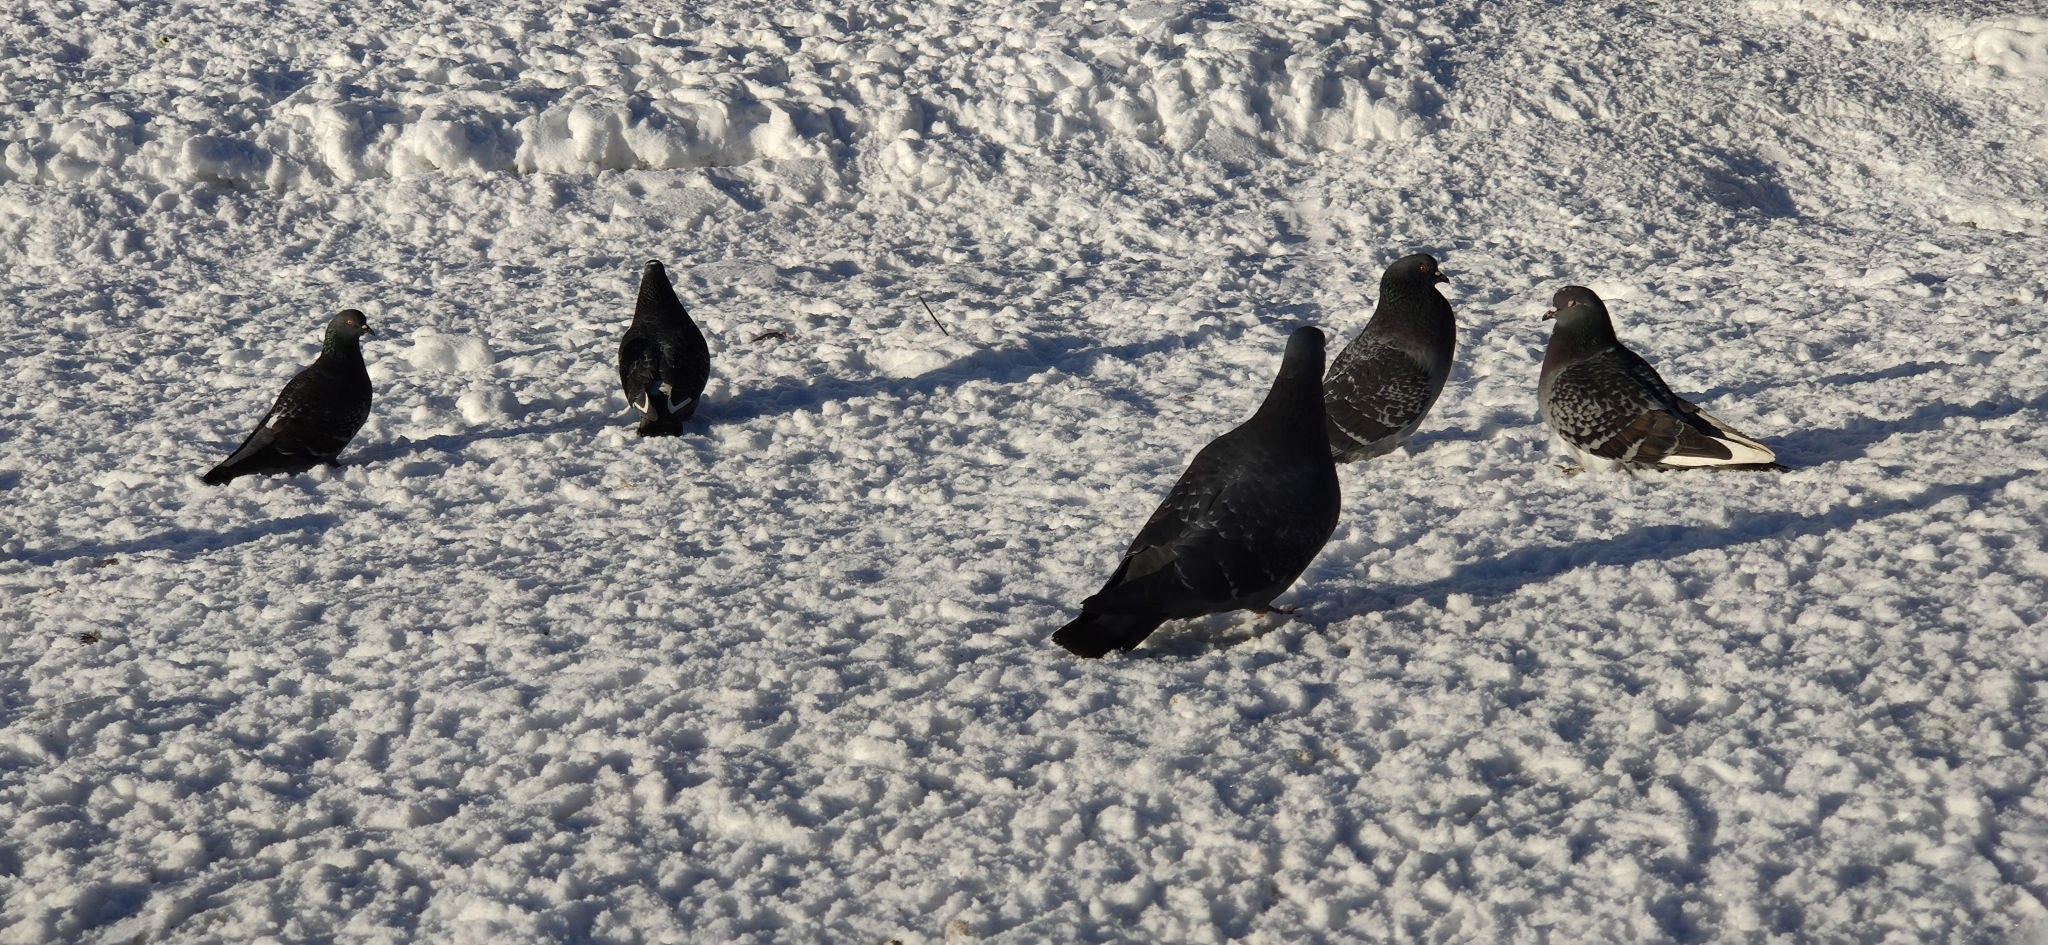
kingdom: Animalia
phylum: Chordata
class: Aves
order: Columbiformes
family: Columbidae
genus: Columba
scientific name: Columba livia
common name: Rock pigeon
